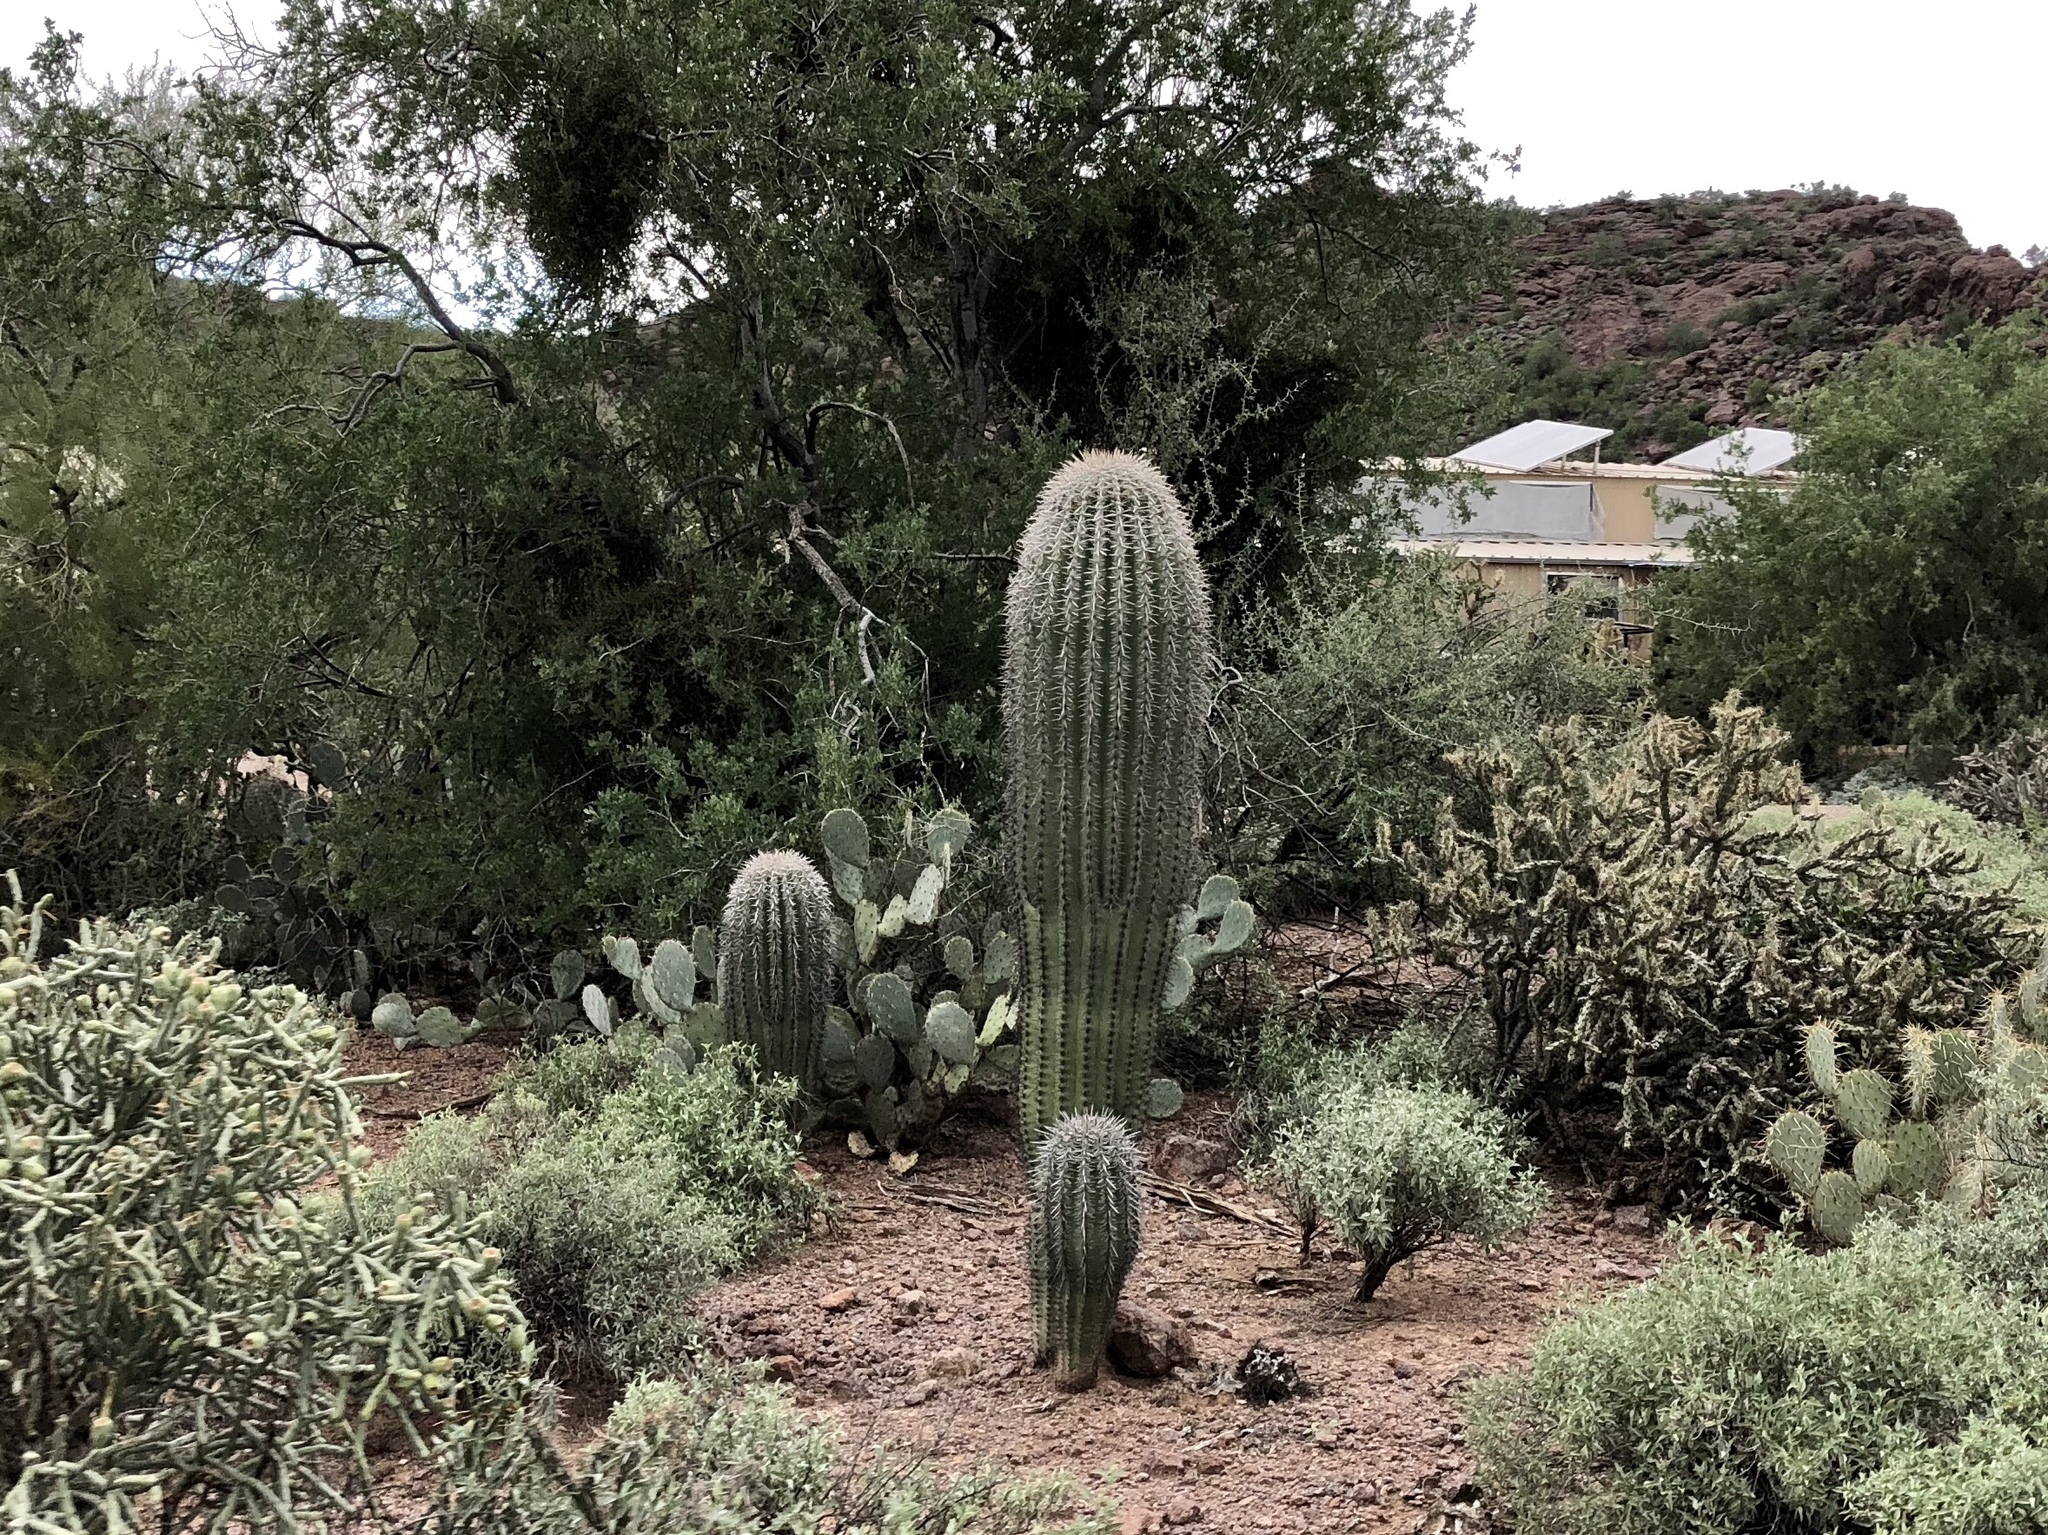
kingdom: Plantae
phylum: Tracheophyta
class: Magnoliopsida
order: Caryophyllales
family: Cactaceae
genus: Carnegiea
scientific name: Carnegiea gigantea
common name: Saguaro
